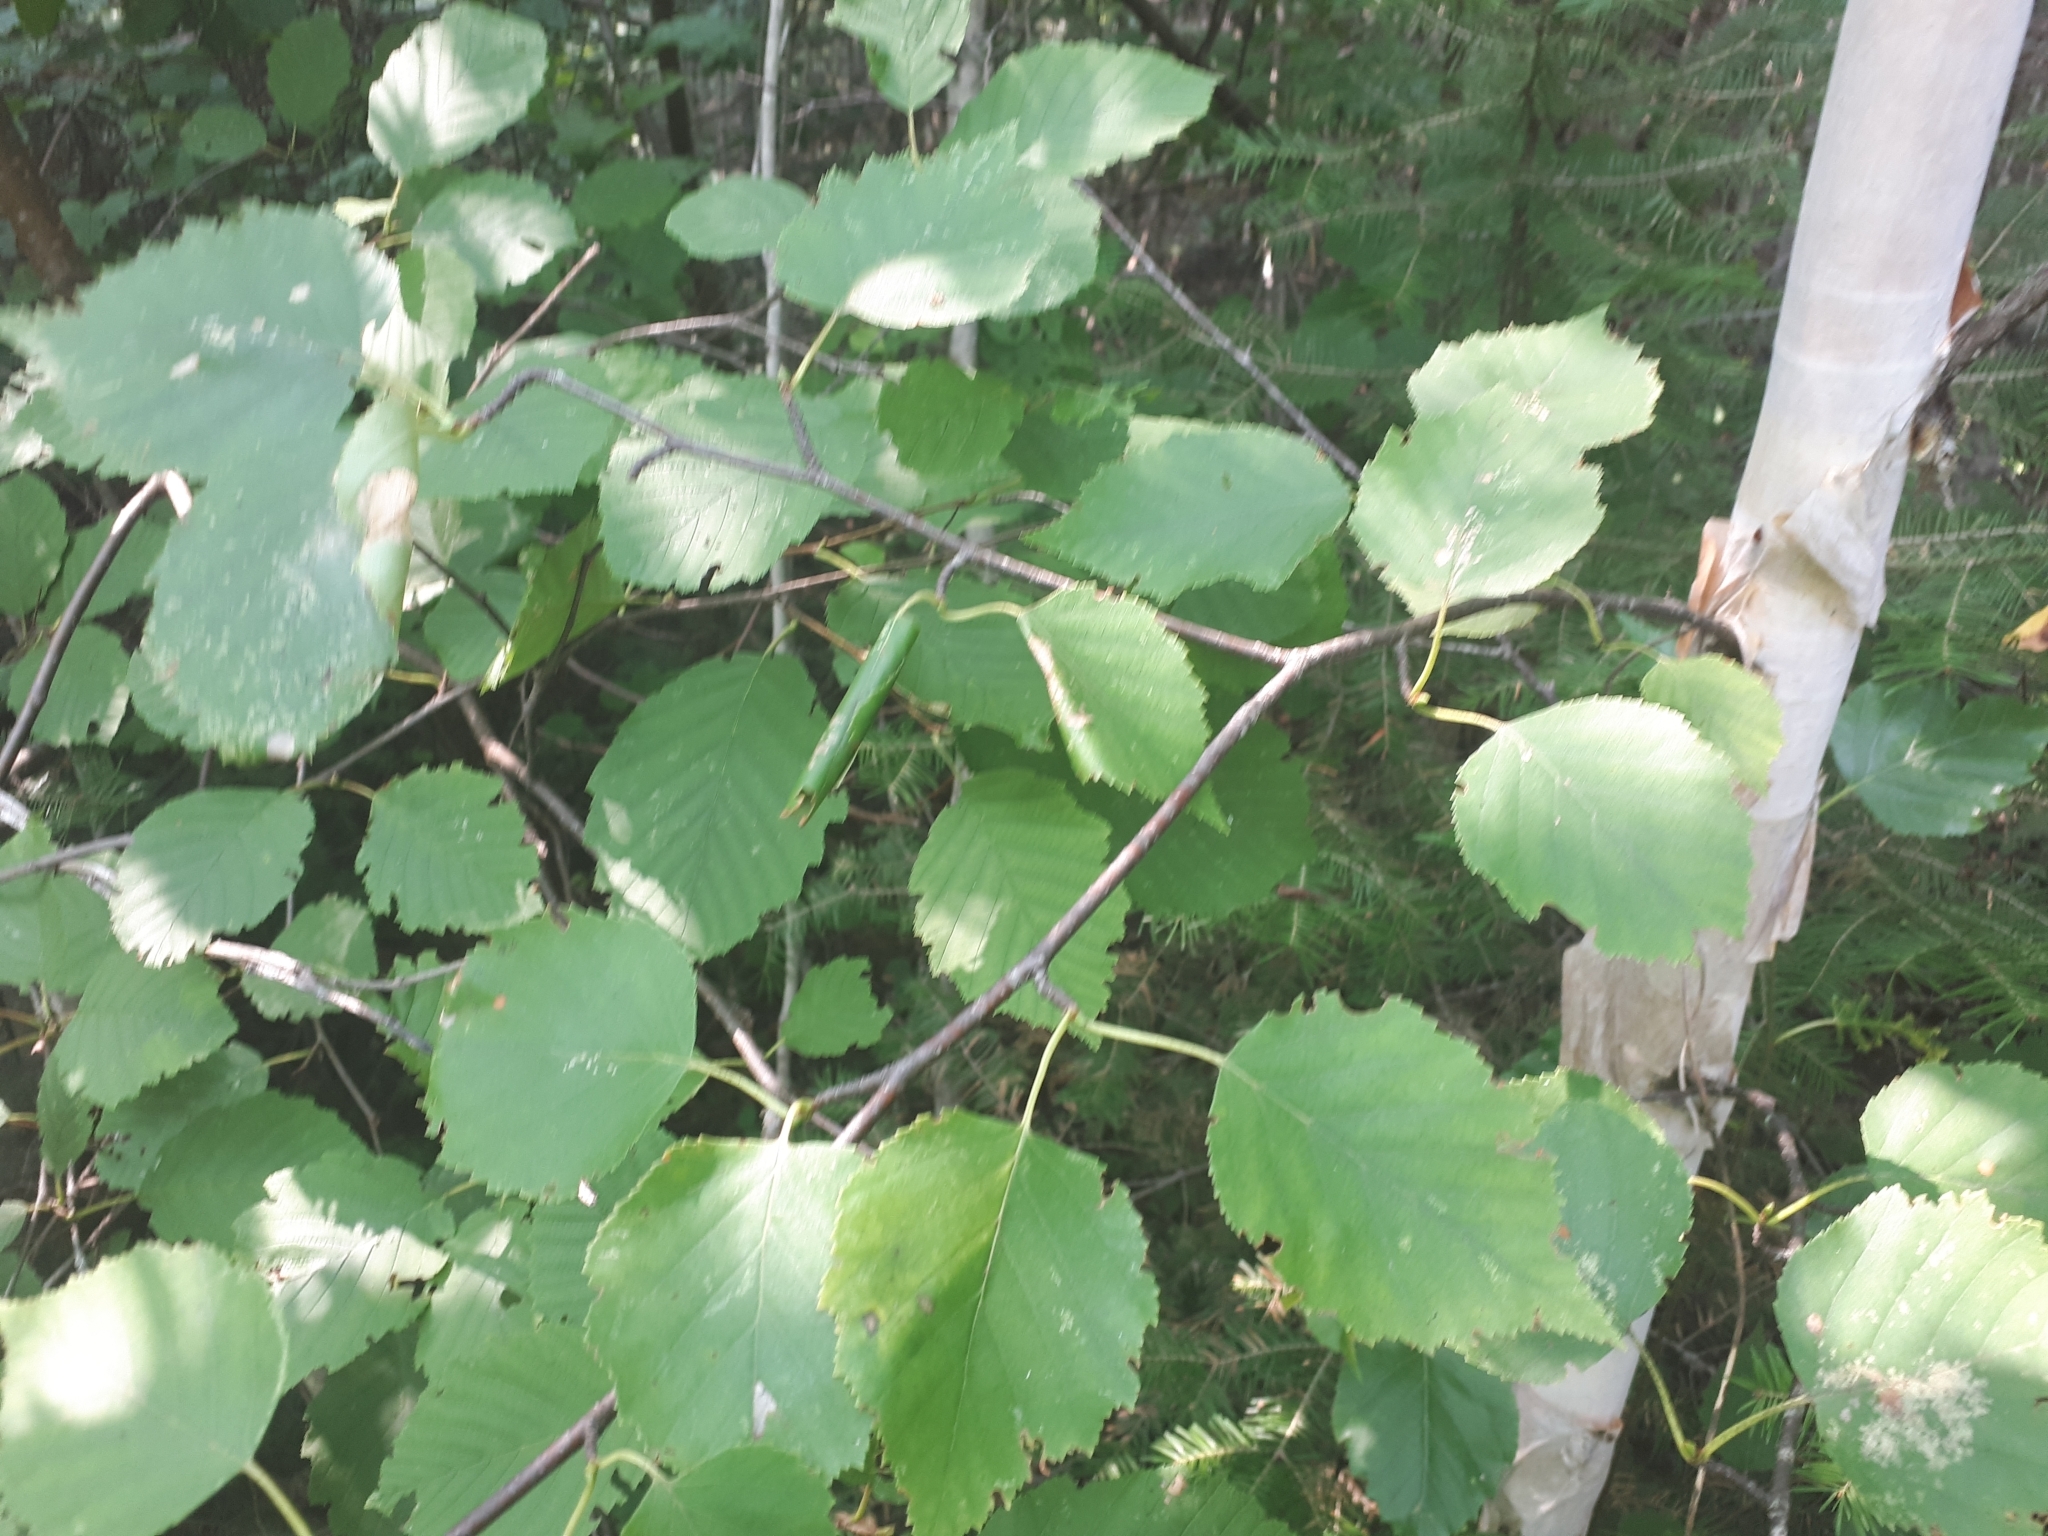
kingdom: Plantae
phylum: Tracheophyta
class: Magnoliopsida
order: Fagales
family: Betulaceae
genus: Betula
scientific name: Betula papyrifera
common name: Paper birch
